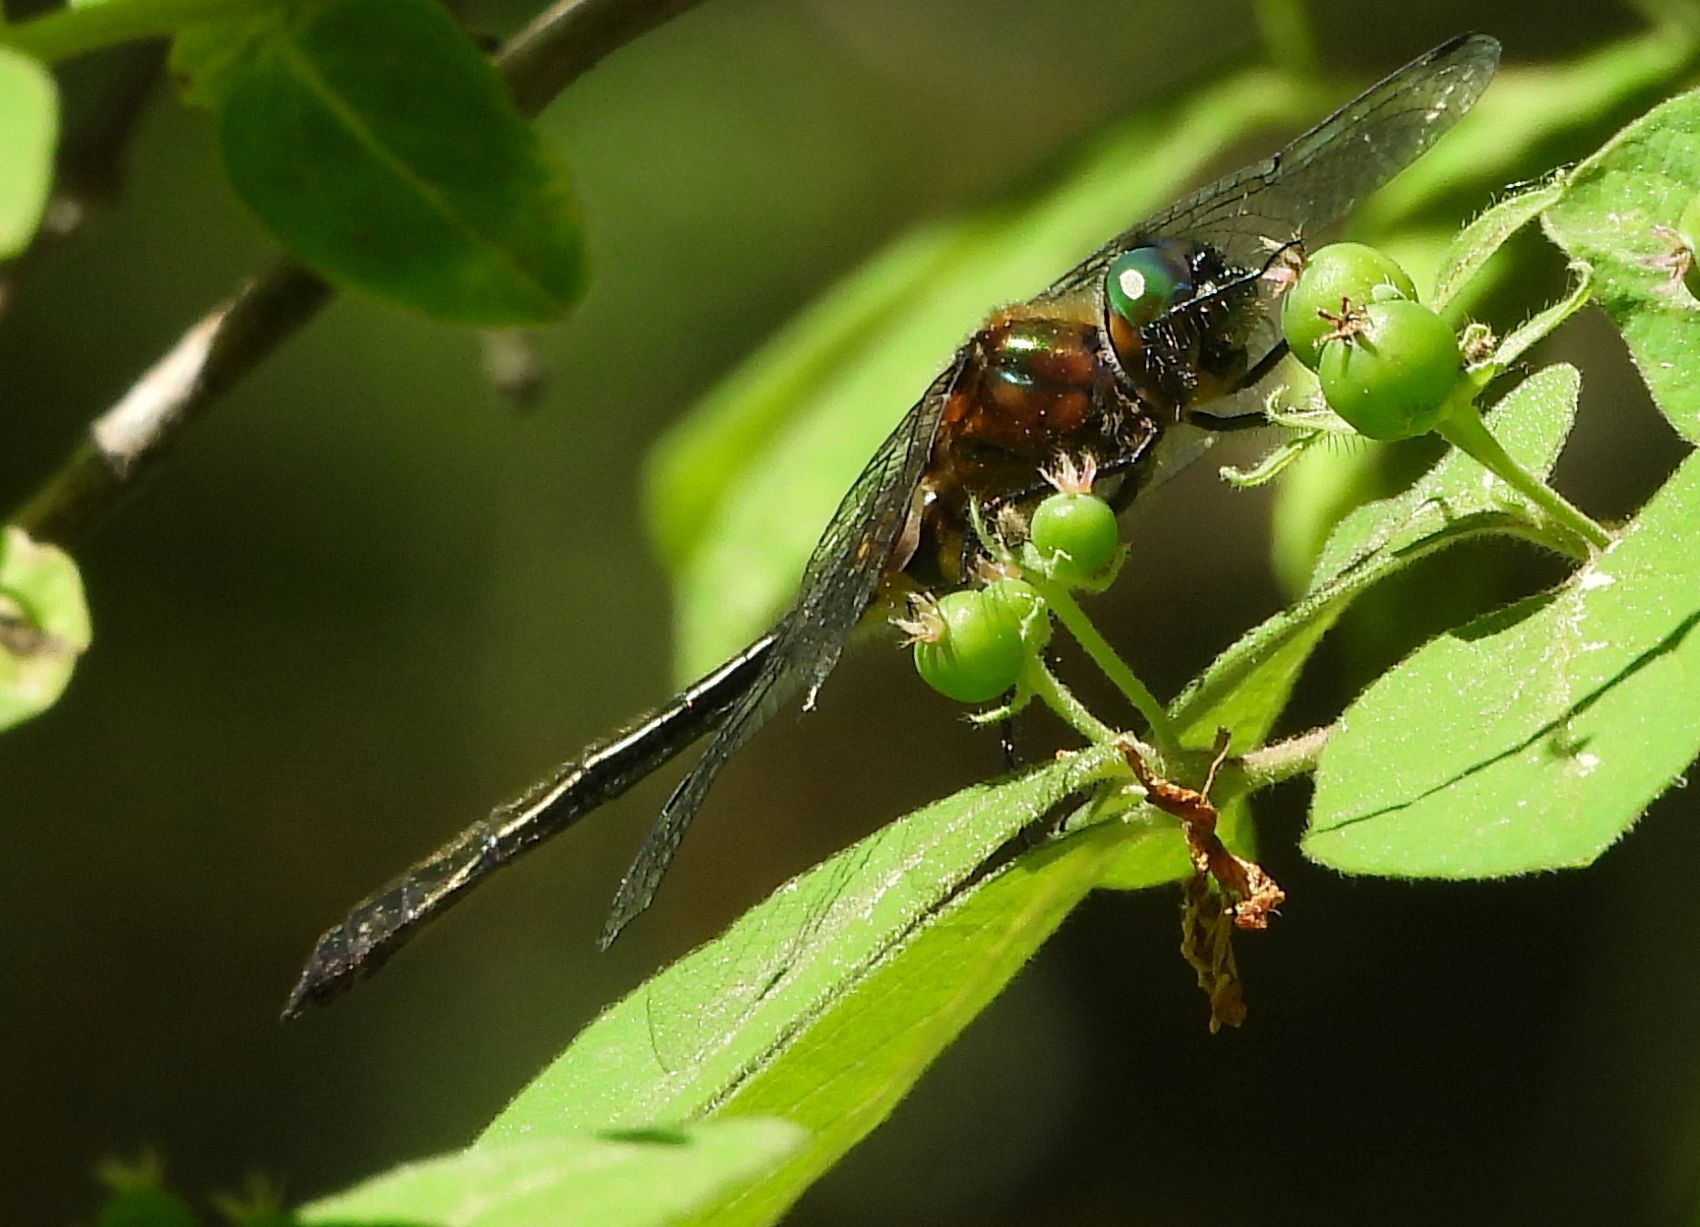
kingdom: Animalia
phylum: Arthropoda
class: Insecta
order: Odonata
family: Corduliidae
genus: Dorocordulia
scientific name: Dorocordulia libera
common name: Racket-tailed emerald
